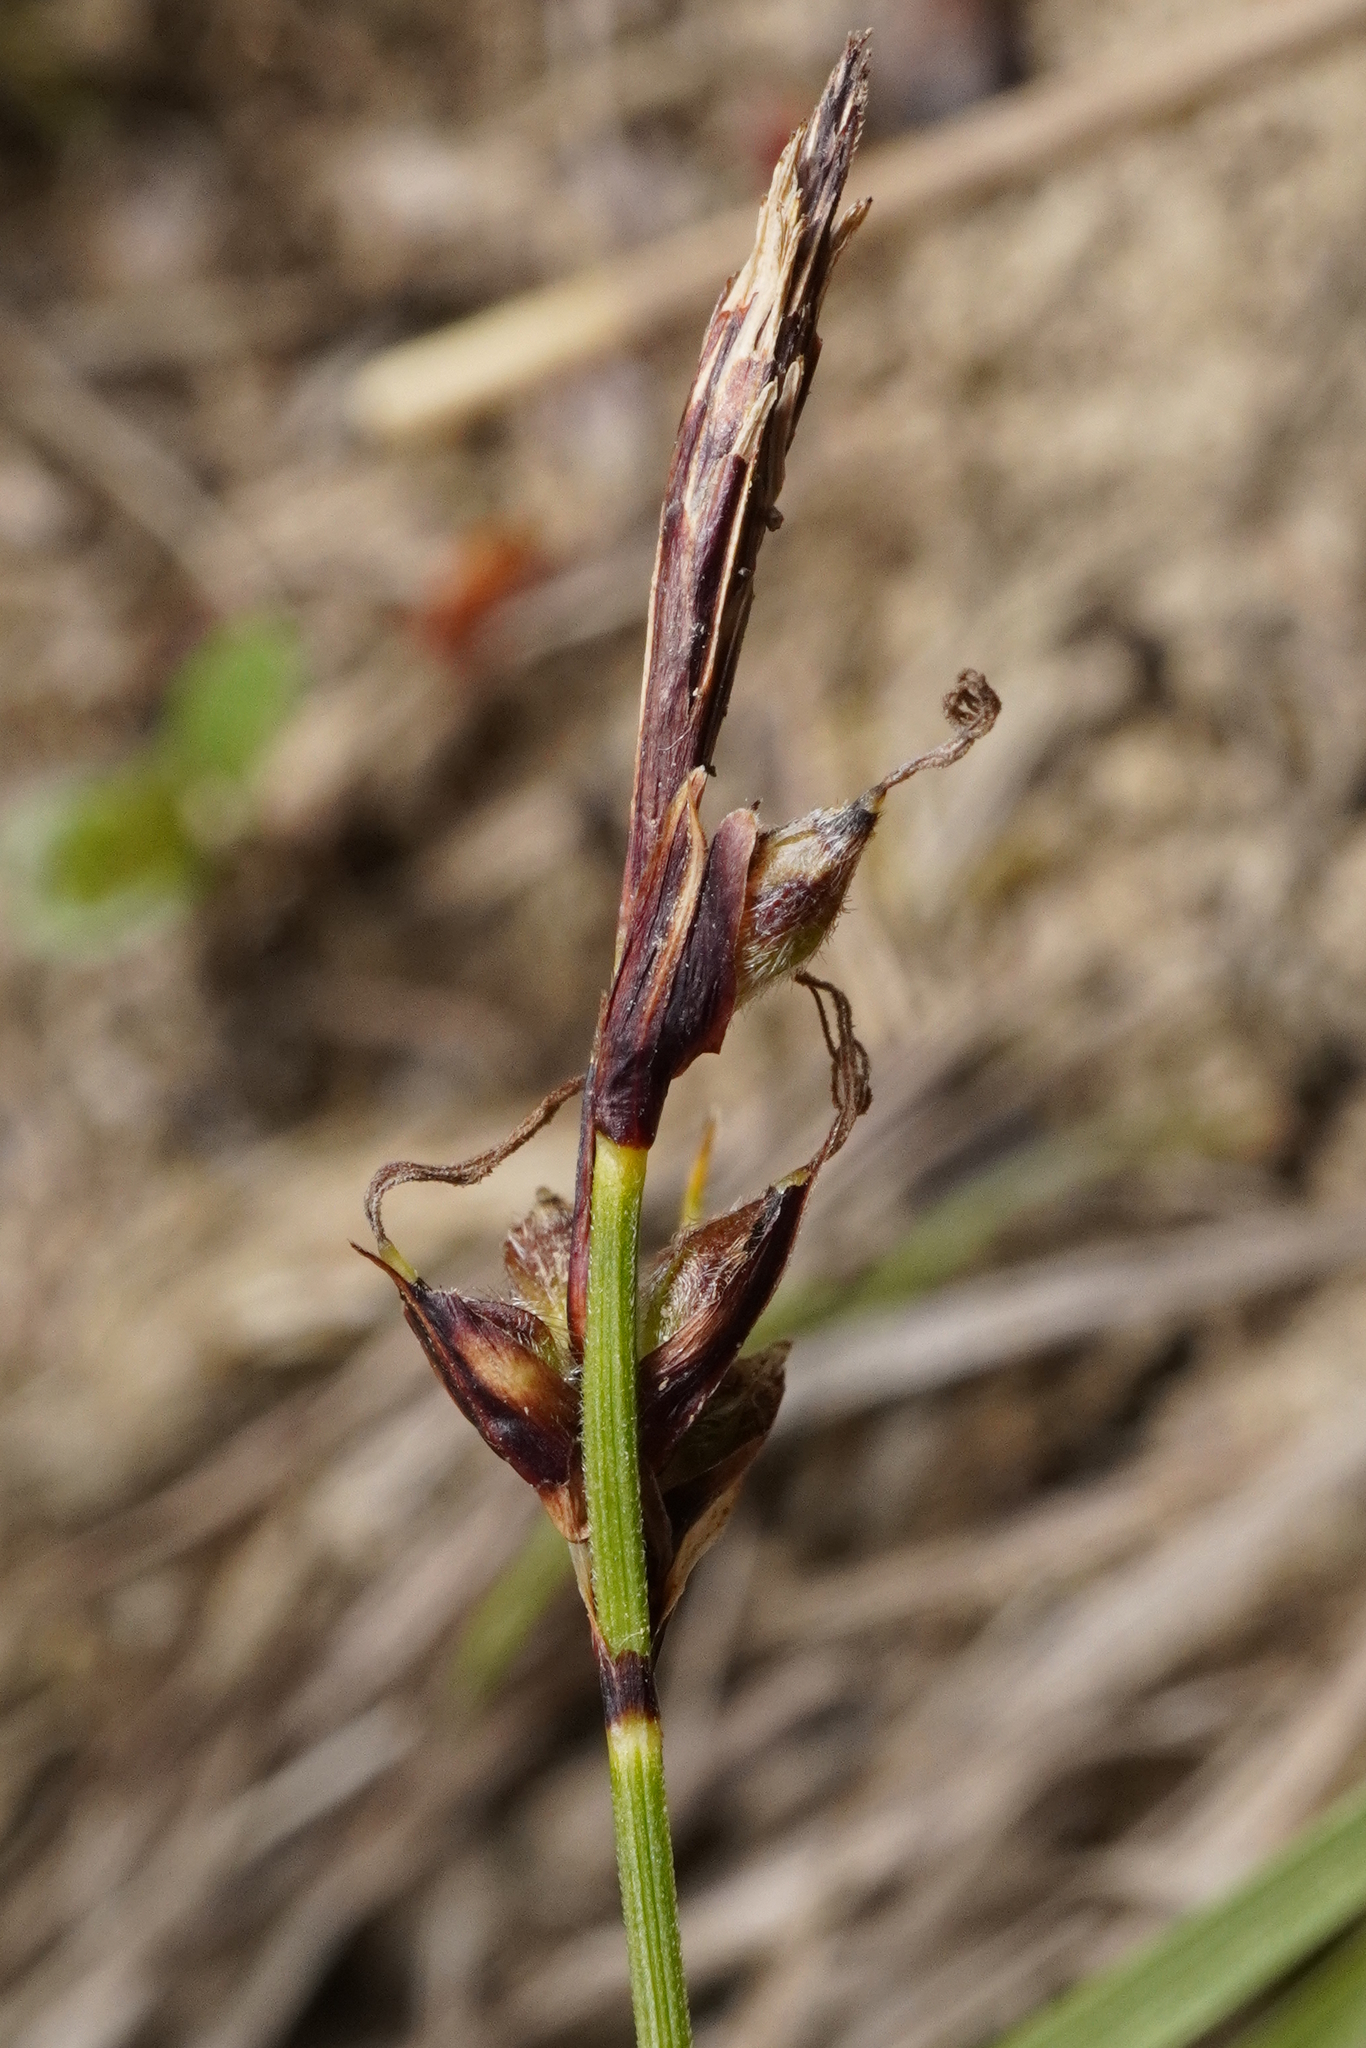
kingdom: Plantae
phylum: Tracheophyta
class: Liliopsida
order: Poales
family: Cyperaceae
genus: Carex
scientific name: Carex montana
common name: Soft-leaved sedge
